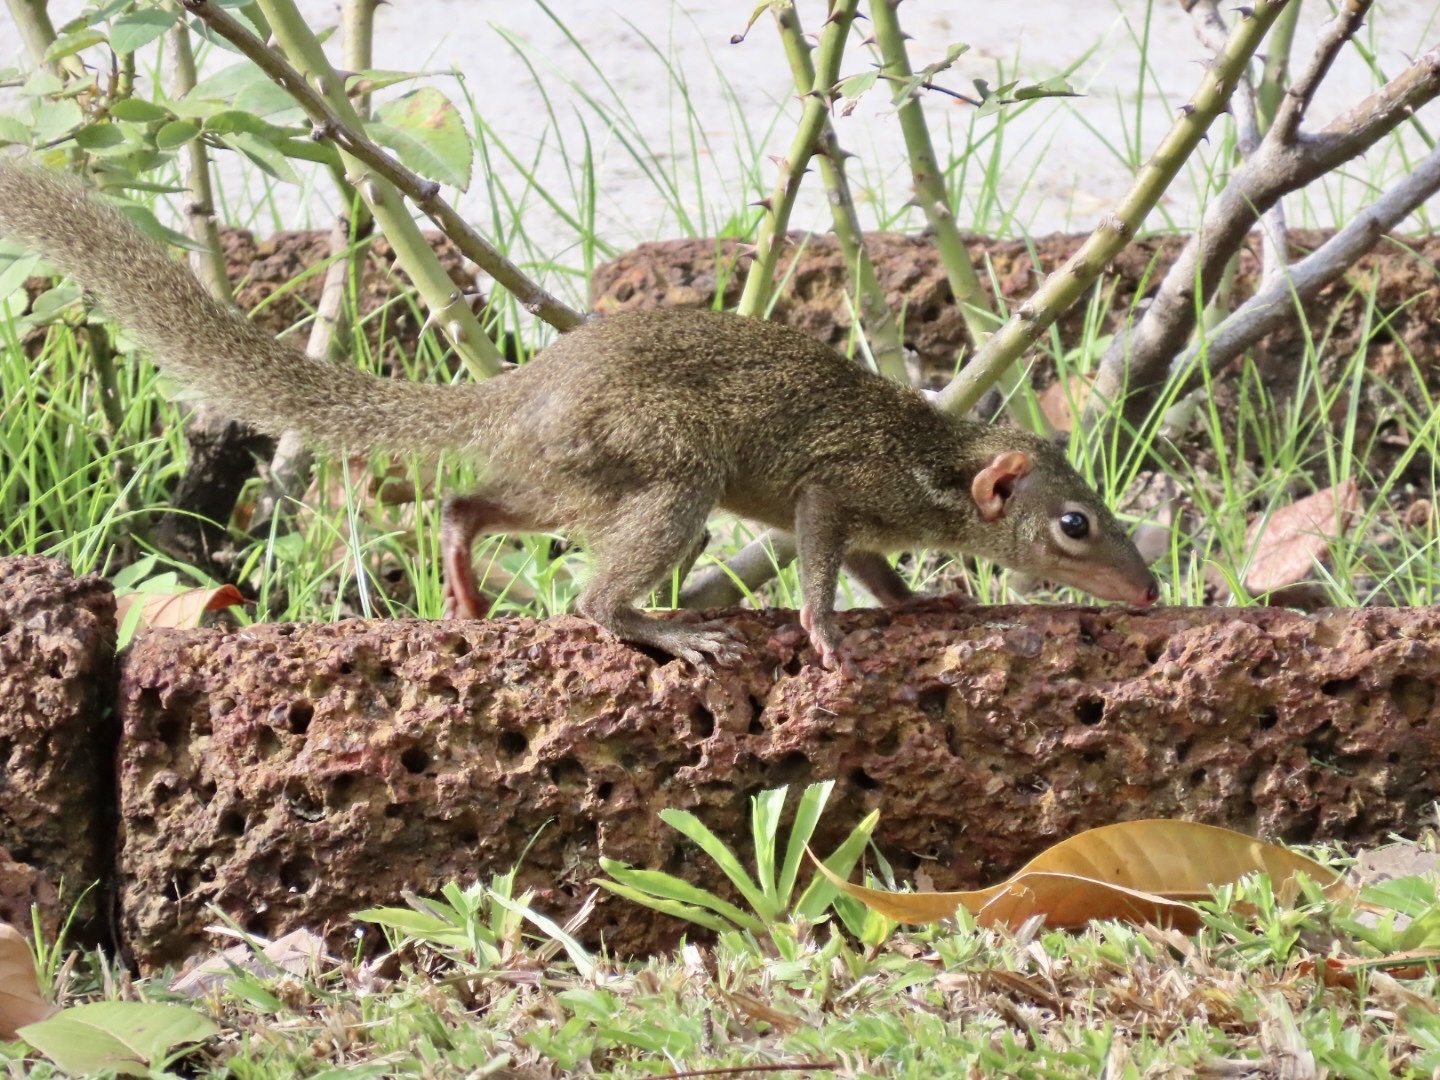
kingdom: Animalia
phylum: Chordata
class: Mammalia
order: Scandentia
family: Tupaiidae
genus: Tupaia
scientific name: Tupaia belangeri
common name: Northern treeshrew
